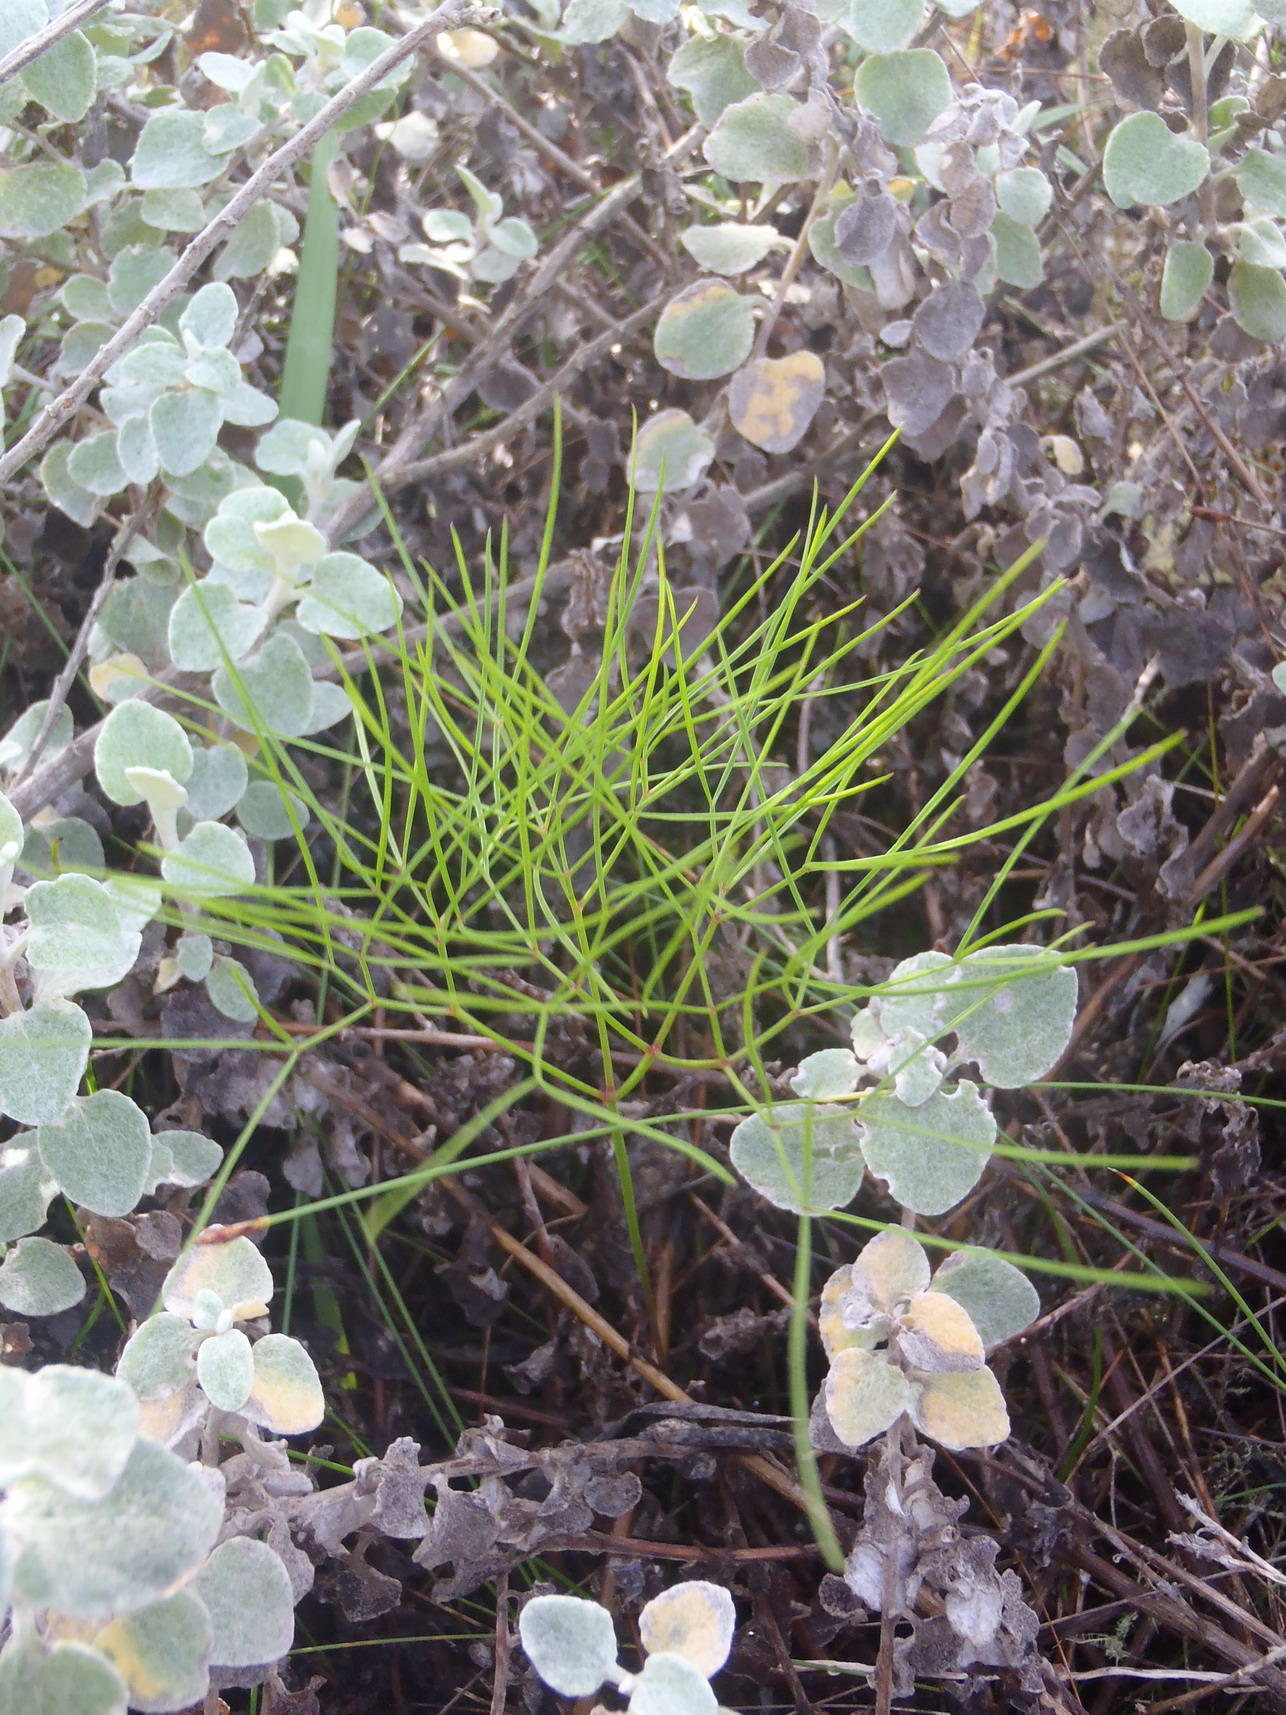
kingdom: Plantae
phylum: Tracheophyta
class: Magnoliopsida
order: Apiales
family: Apiaceae
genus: Nanobubon
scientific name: Nanobubon hypogaeum
